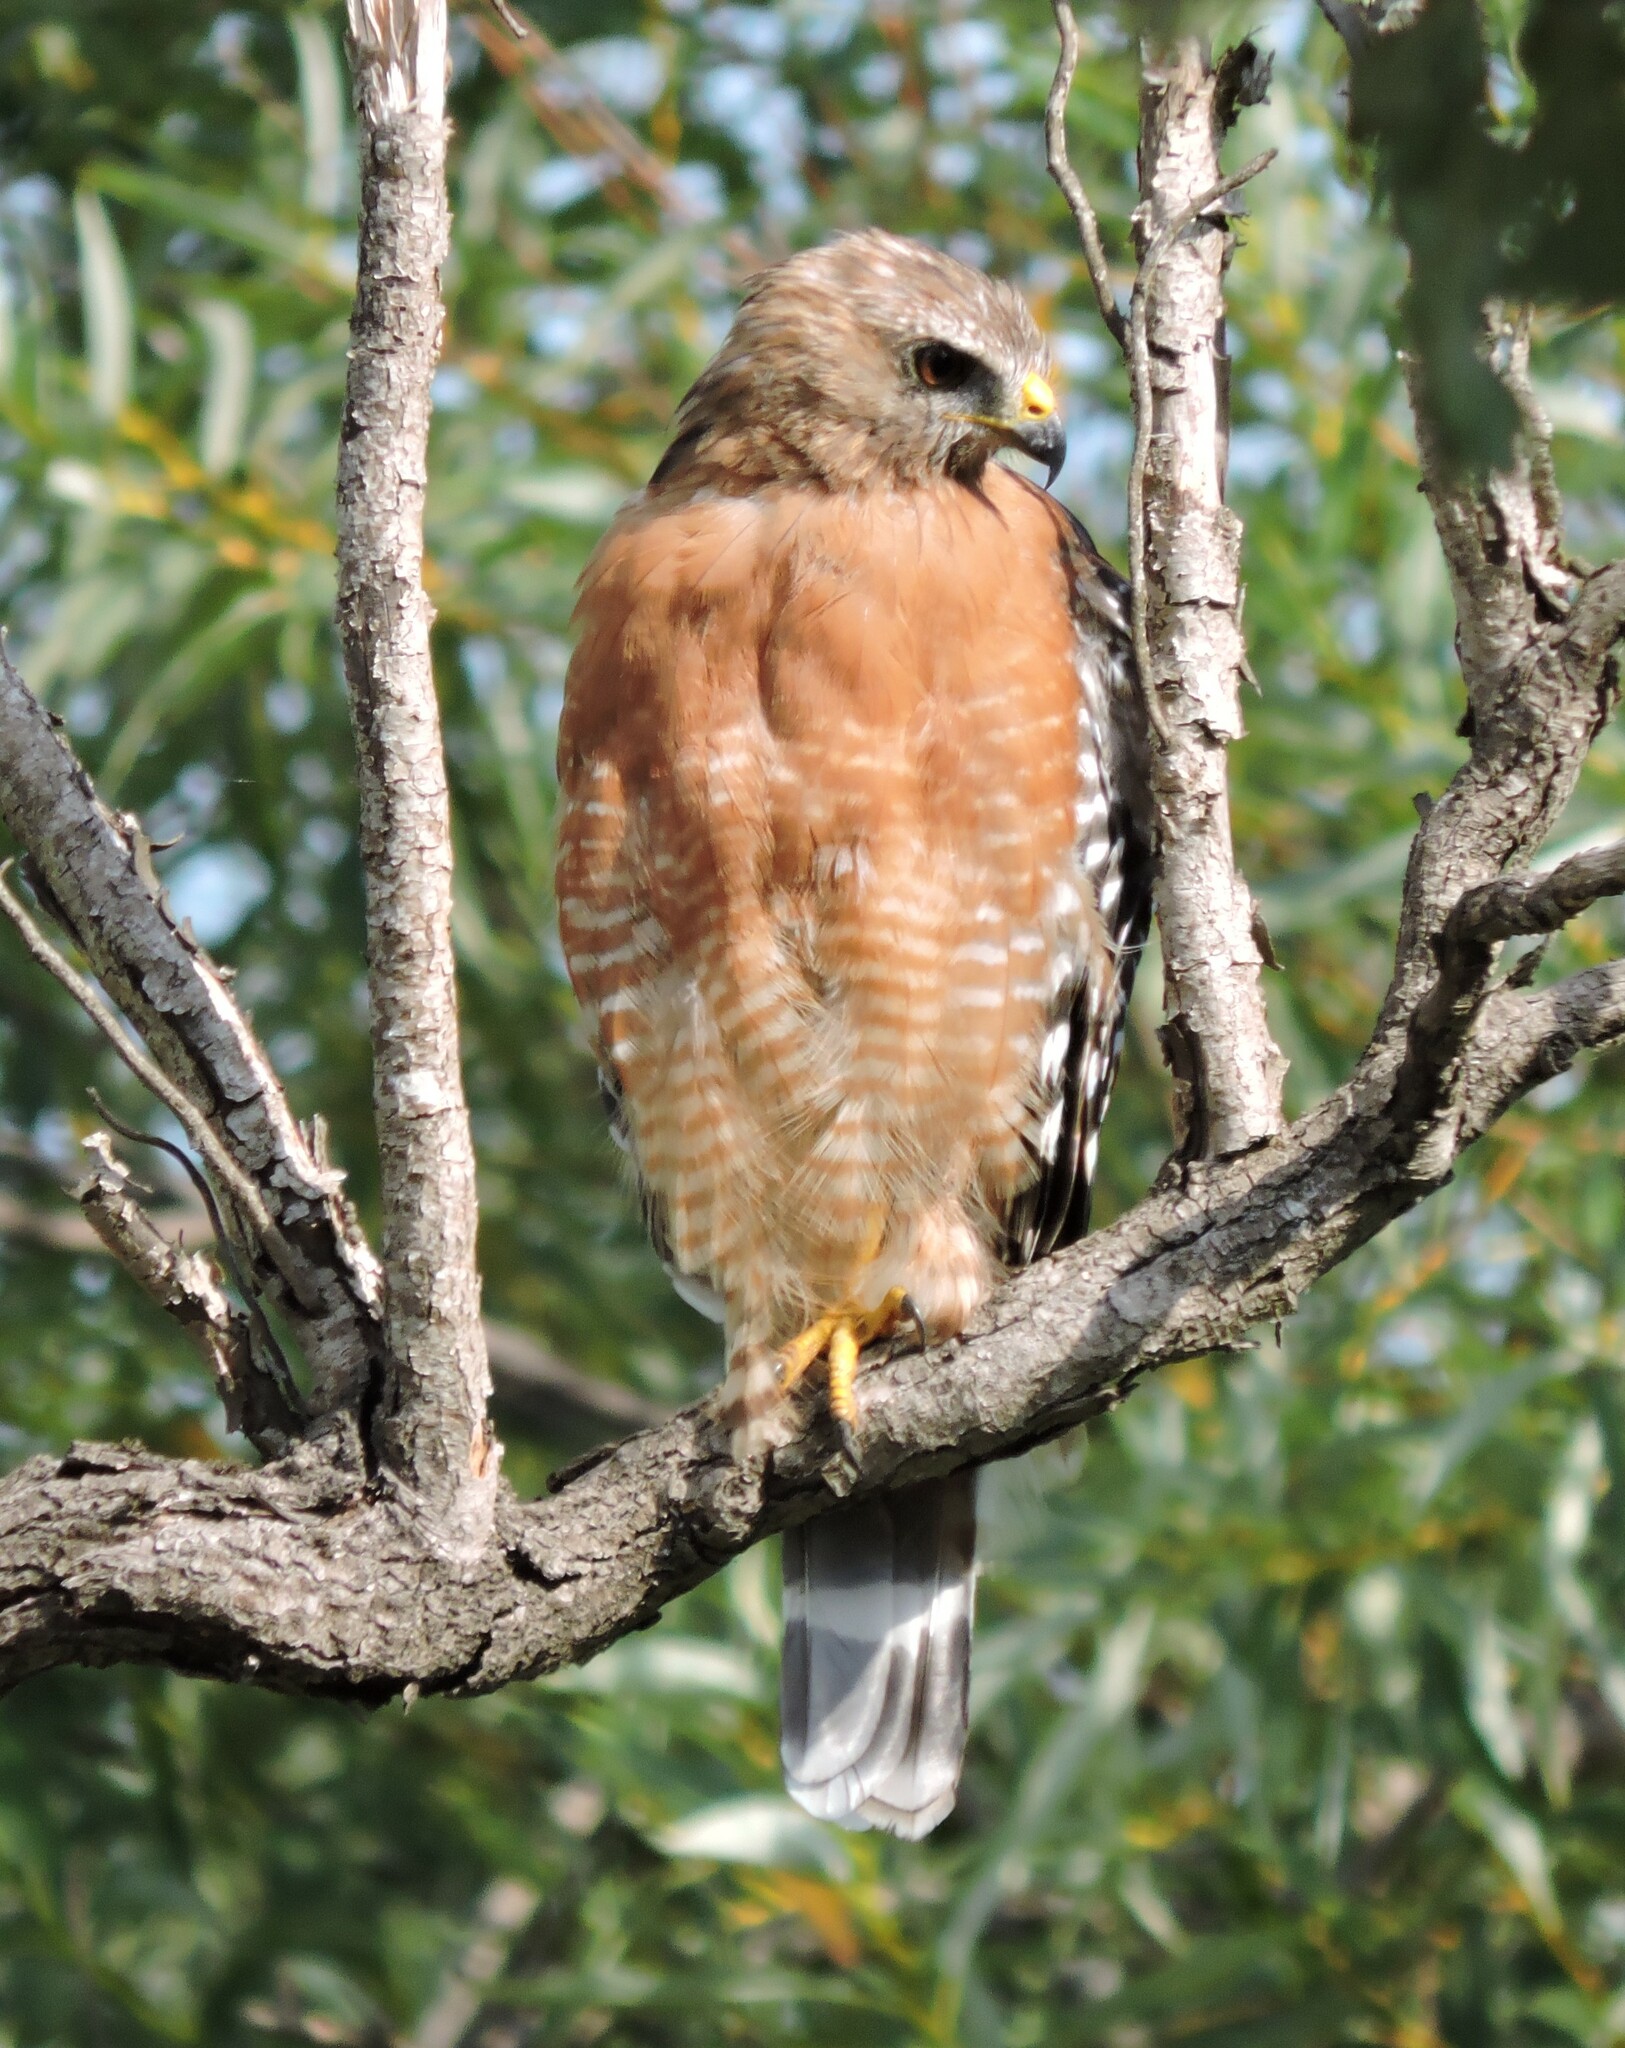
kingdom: Animalia
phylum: Chordata
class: Aves
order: Accipitriformes
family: Accipitridae
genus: Buteo
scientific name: Buteo lineatus
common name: Red-shouldered hawk
